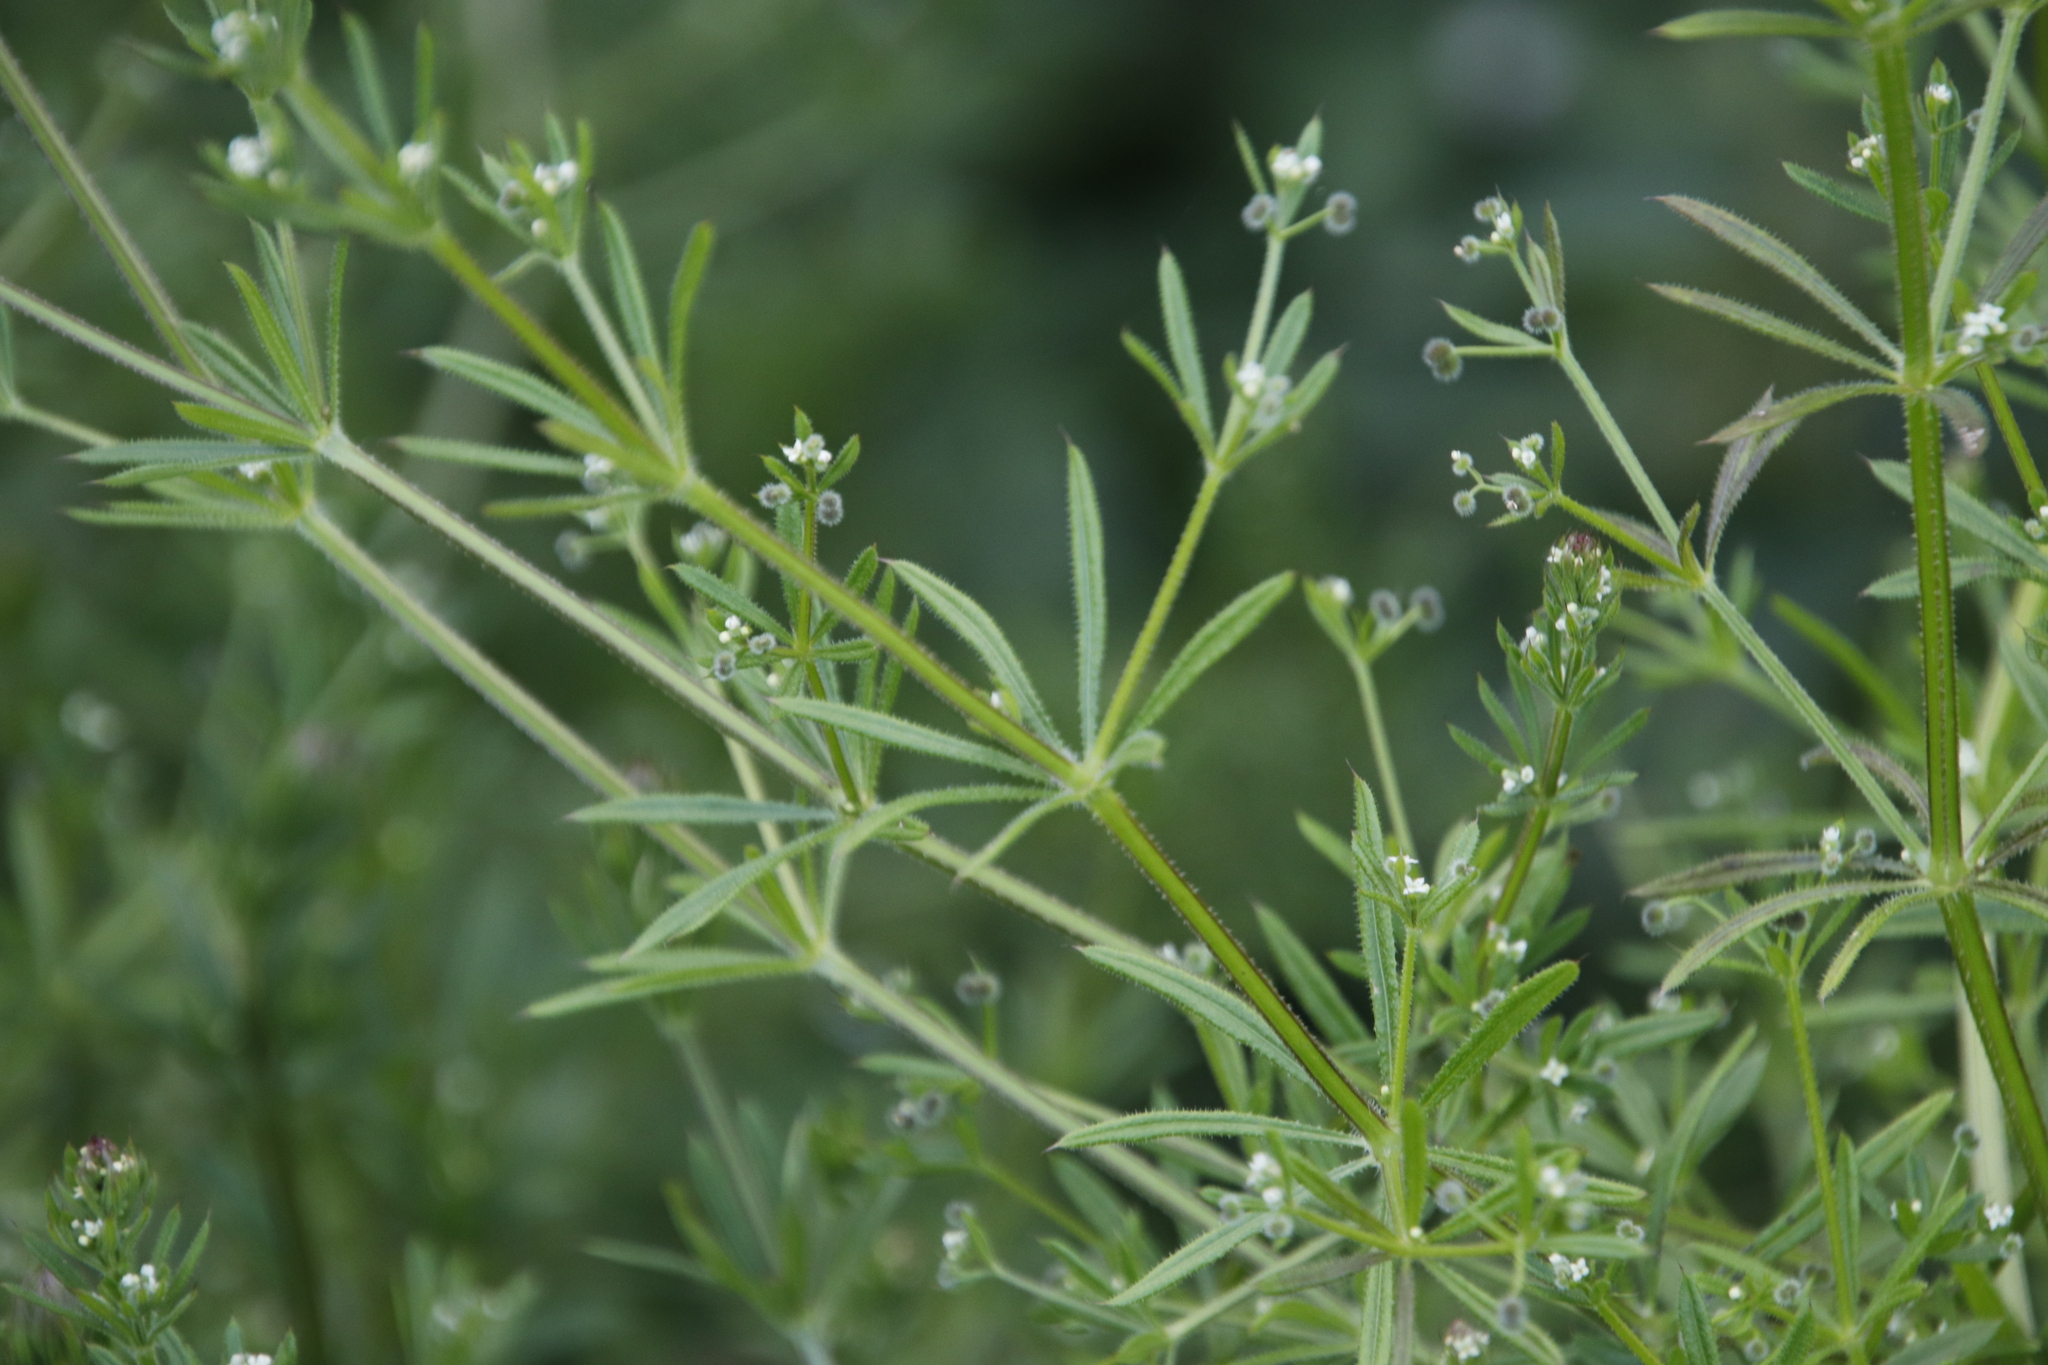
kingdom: Plantae
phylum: Tracheophyta
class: Magnoliopsida
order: Gentianales
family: Rubiaceae
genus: Galium
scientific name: Galium aparine
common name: Cleavers
